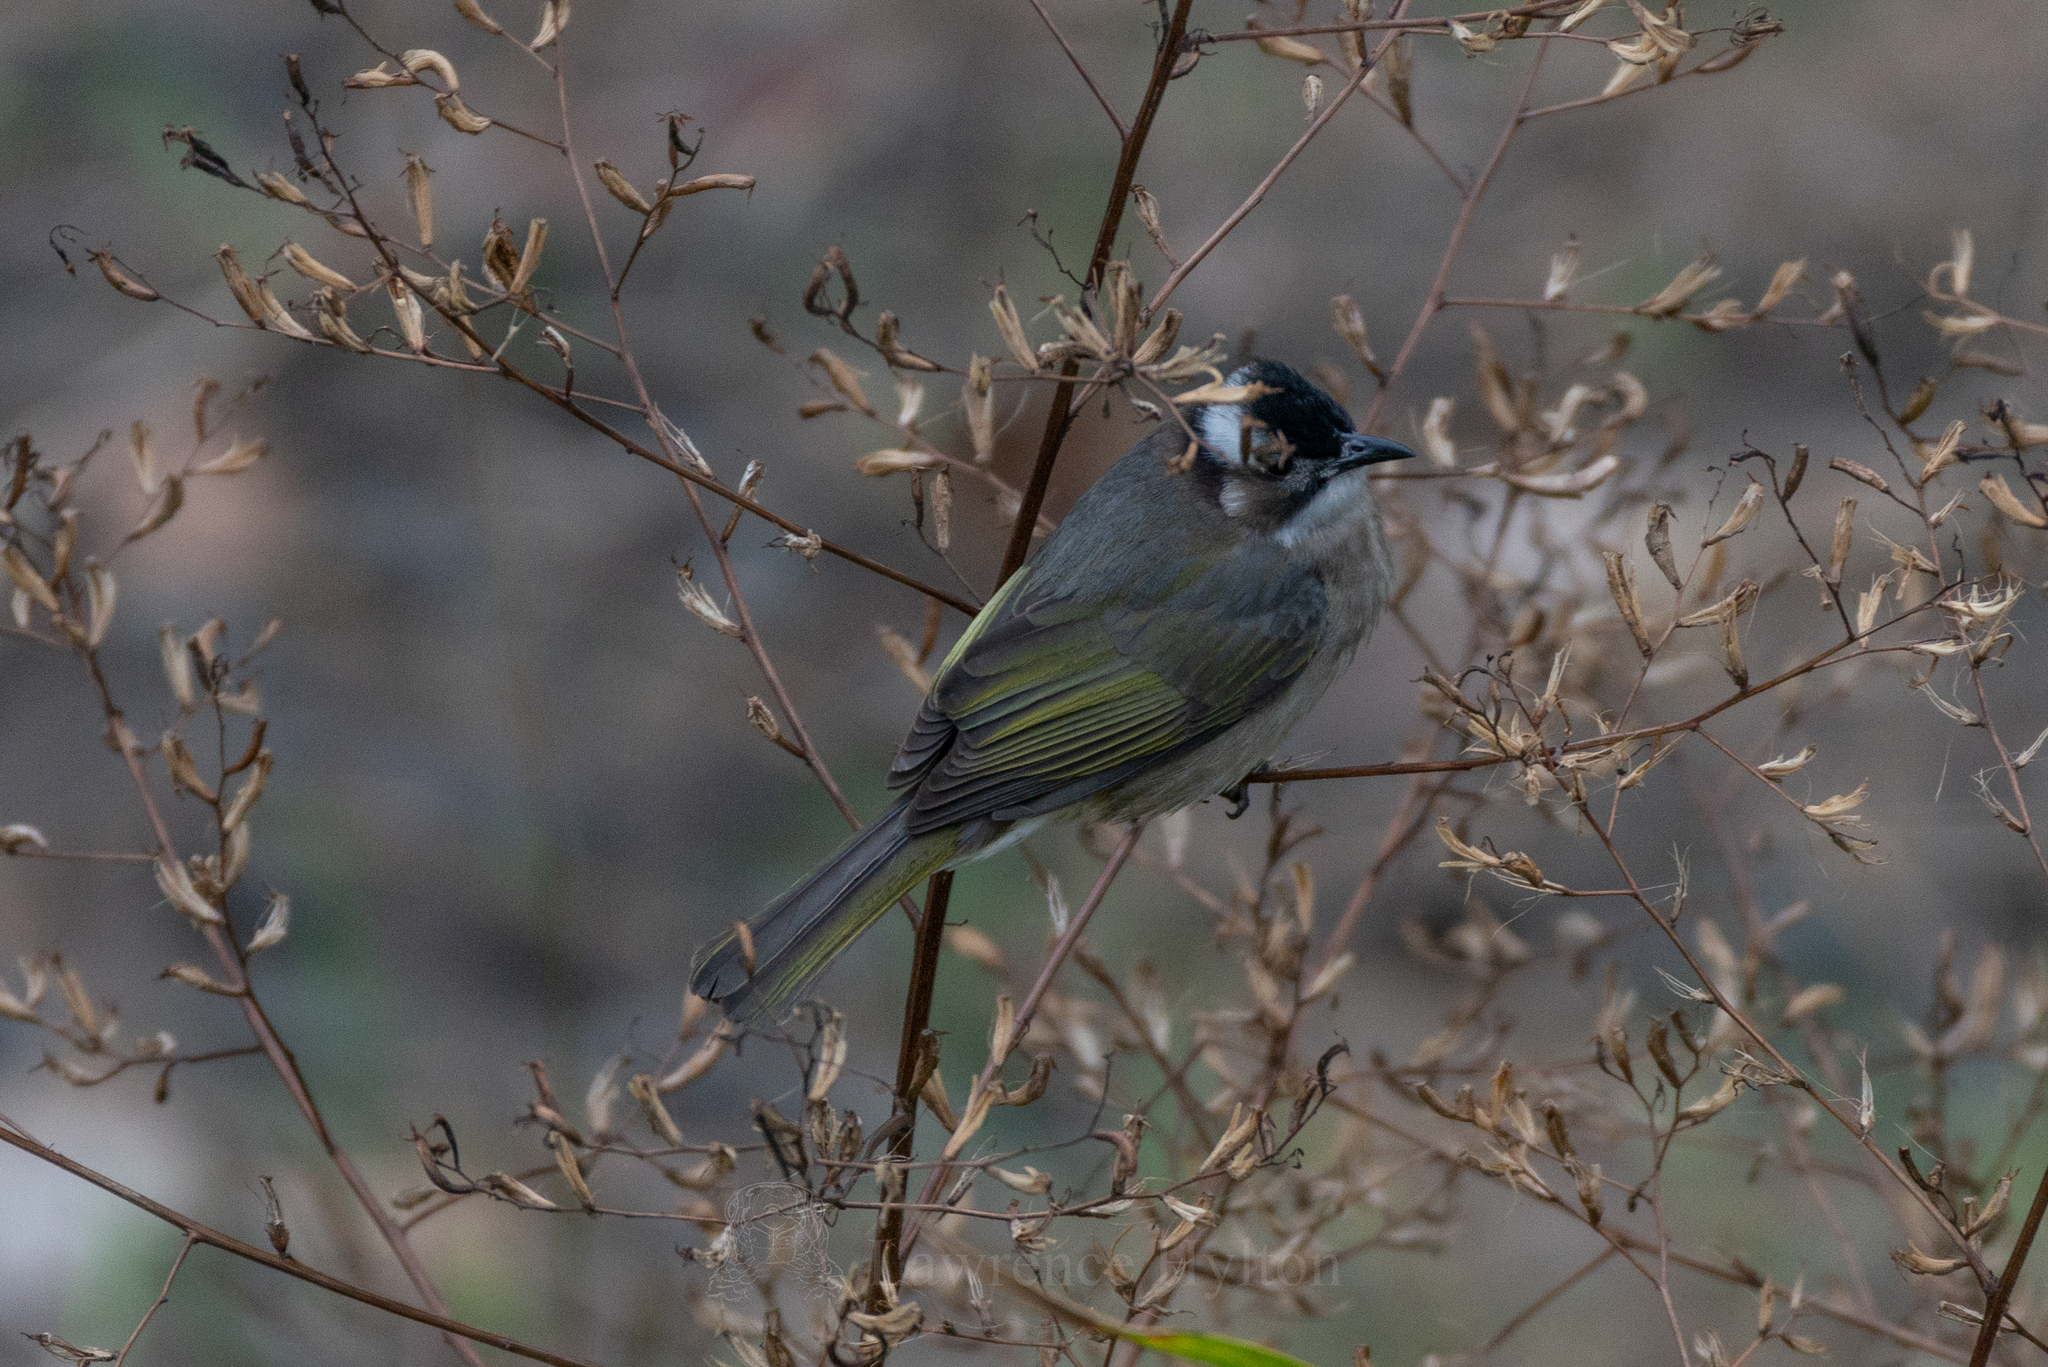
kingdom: Animalia
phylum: Chordata
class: Aves
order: Passeriformes
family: Pycnonotidae
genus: Pycnonotus
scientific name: Pycnonotus sinensis
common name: Light-vented bulbul
